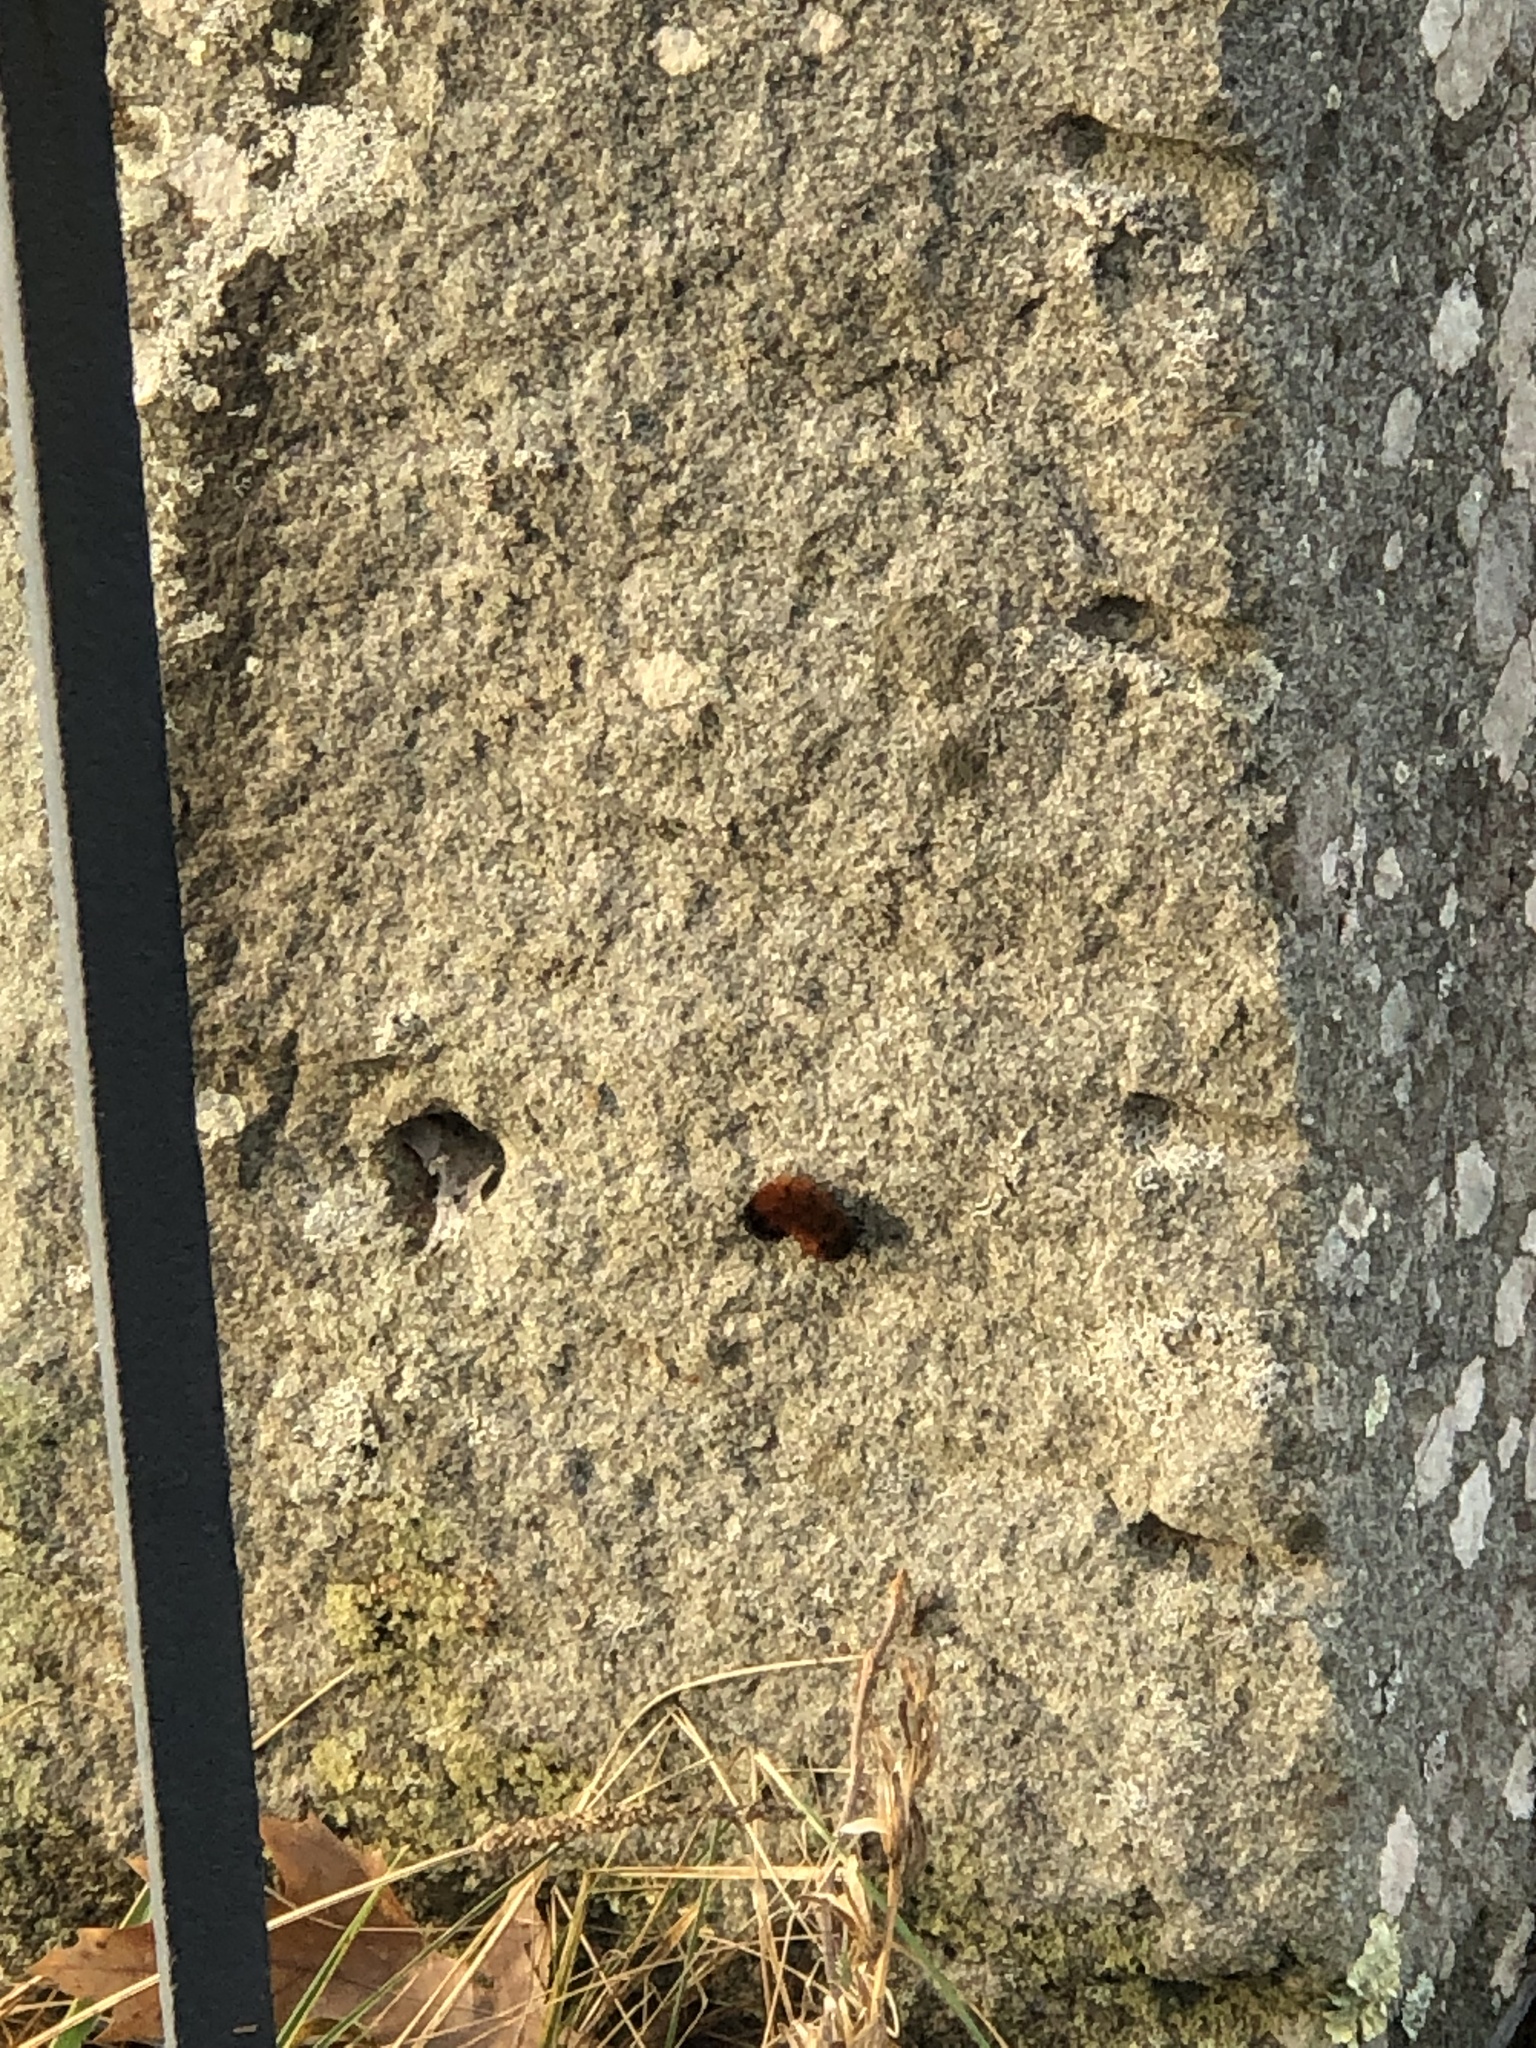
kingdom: Animalia
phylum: Arthropoda
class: Insecta
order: Lepidoptera
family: Erebidae
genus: Pyrrharctia
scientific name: Pyrrharctia isabella
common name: Isabella tiger moth
